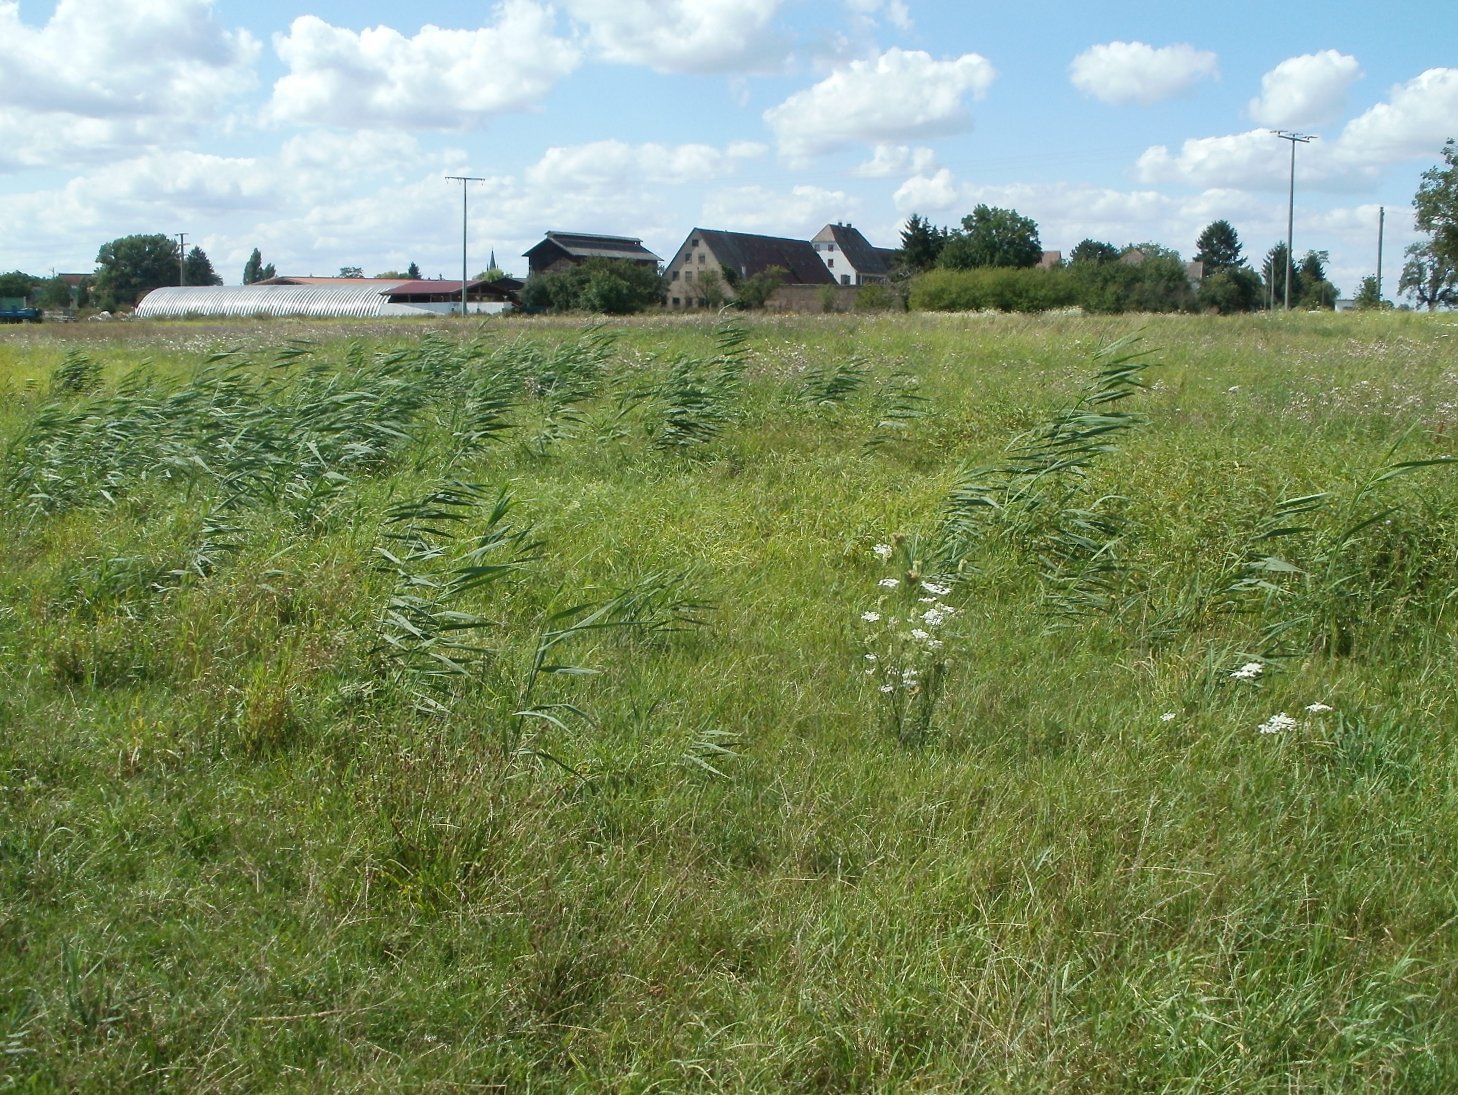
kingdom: Plantae
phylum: Tracheophyta
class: Liliopsida
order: Poales
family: Poaceae
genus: Phragmites
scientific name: Phragmites australis
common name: Common reed
